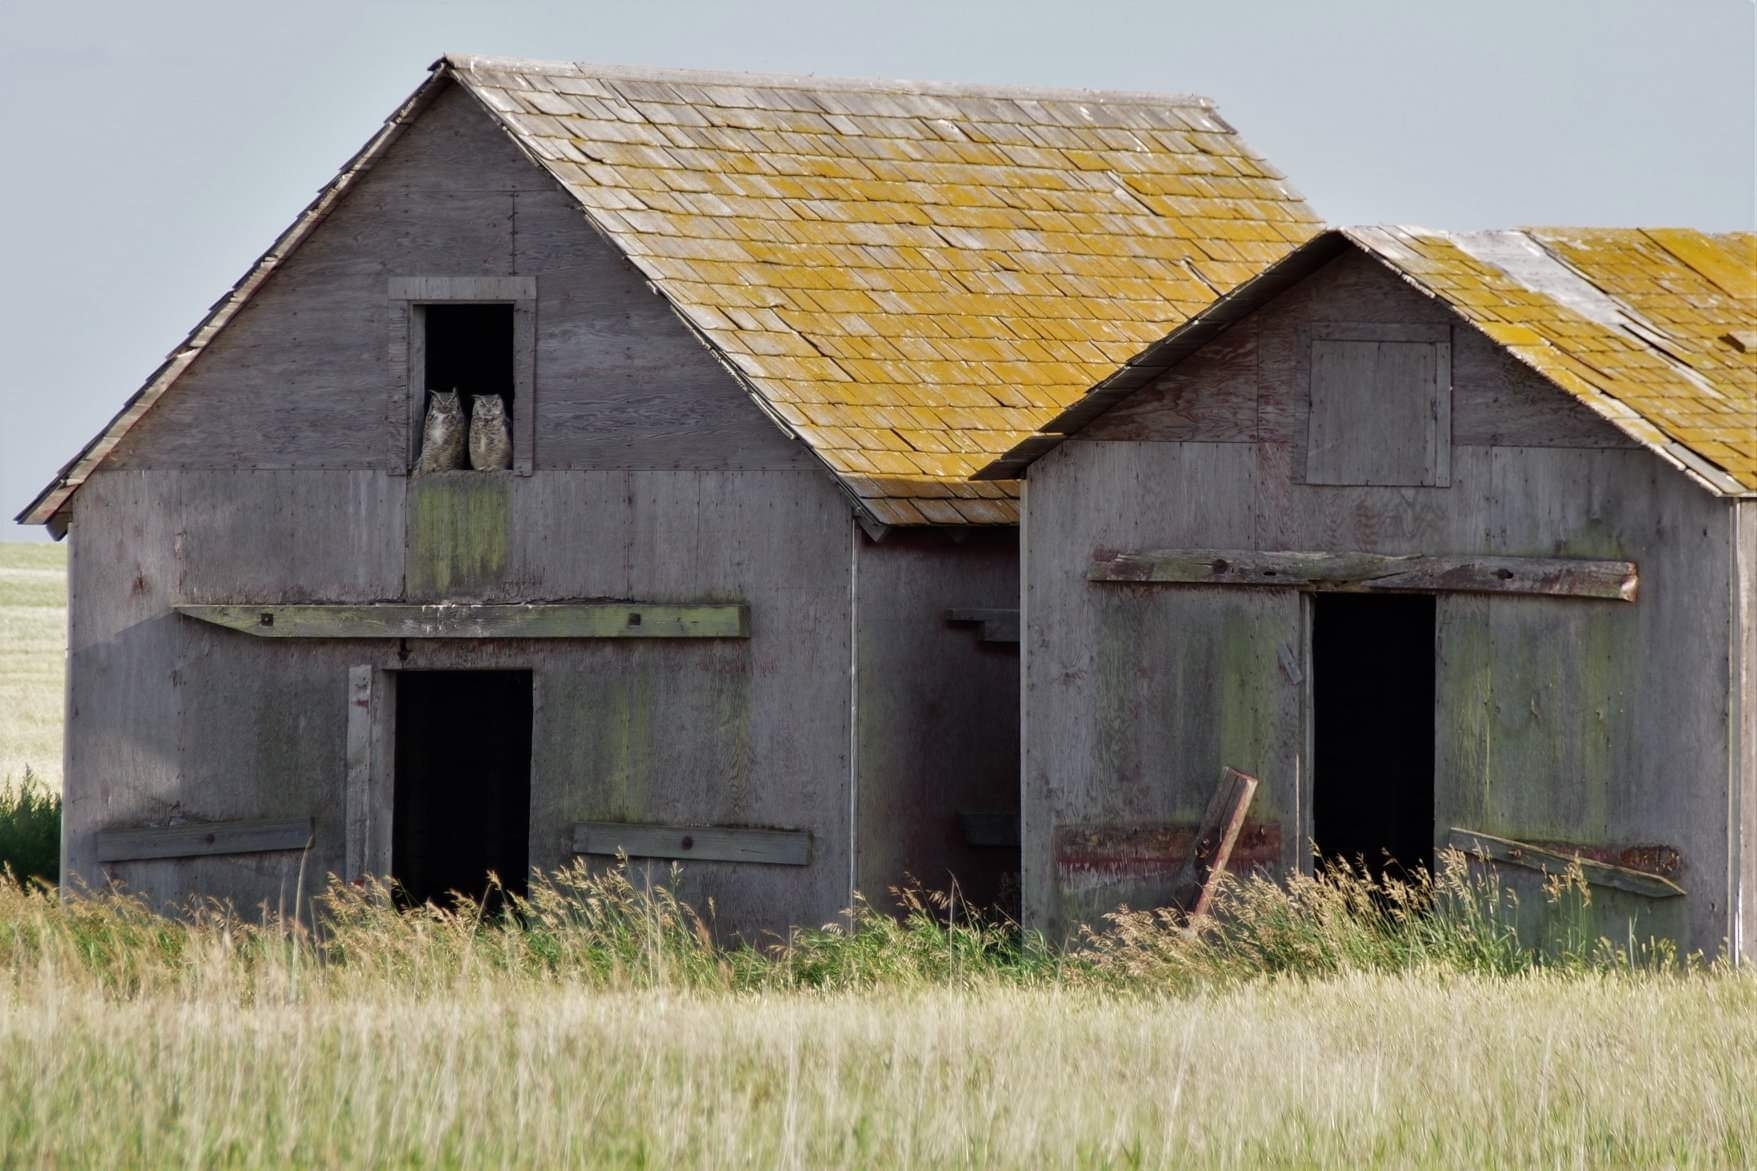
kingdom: Animalia
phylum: Chordata
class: Aves
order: Strigiformes
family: Strigidae
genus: Bubo
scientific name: Bubo virginianus
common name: Great horned owl
